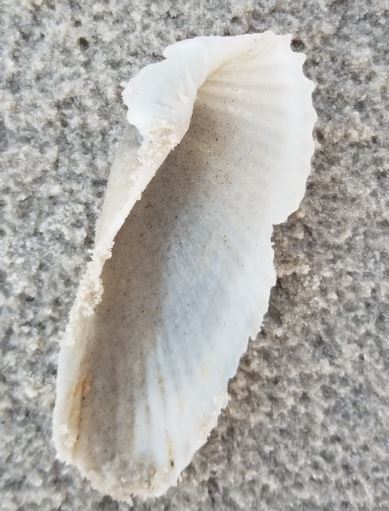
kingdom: Animalia
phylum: Mollusca
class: Bivalvia
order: Myida
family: Pholadidae
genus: Cyrtopleura
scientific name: Cyrtopleura costata
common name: Angel wing
